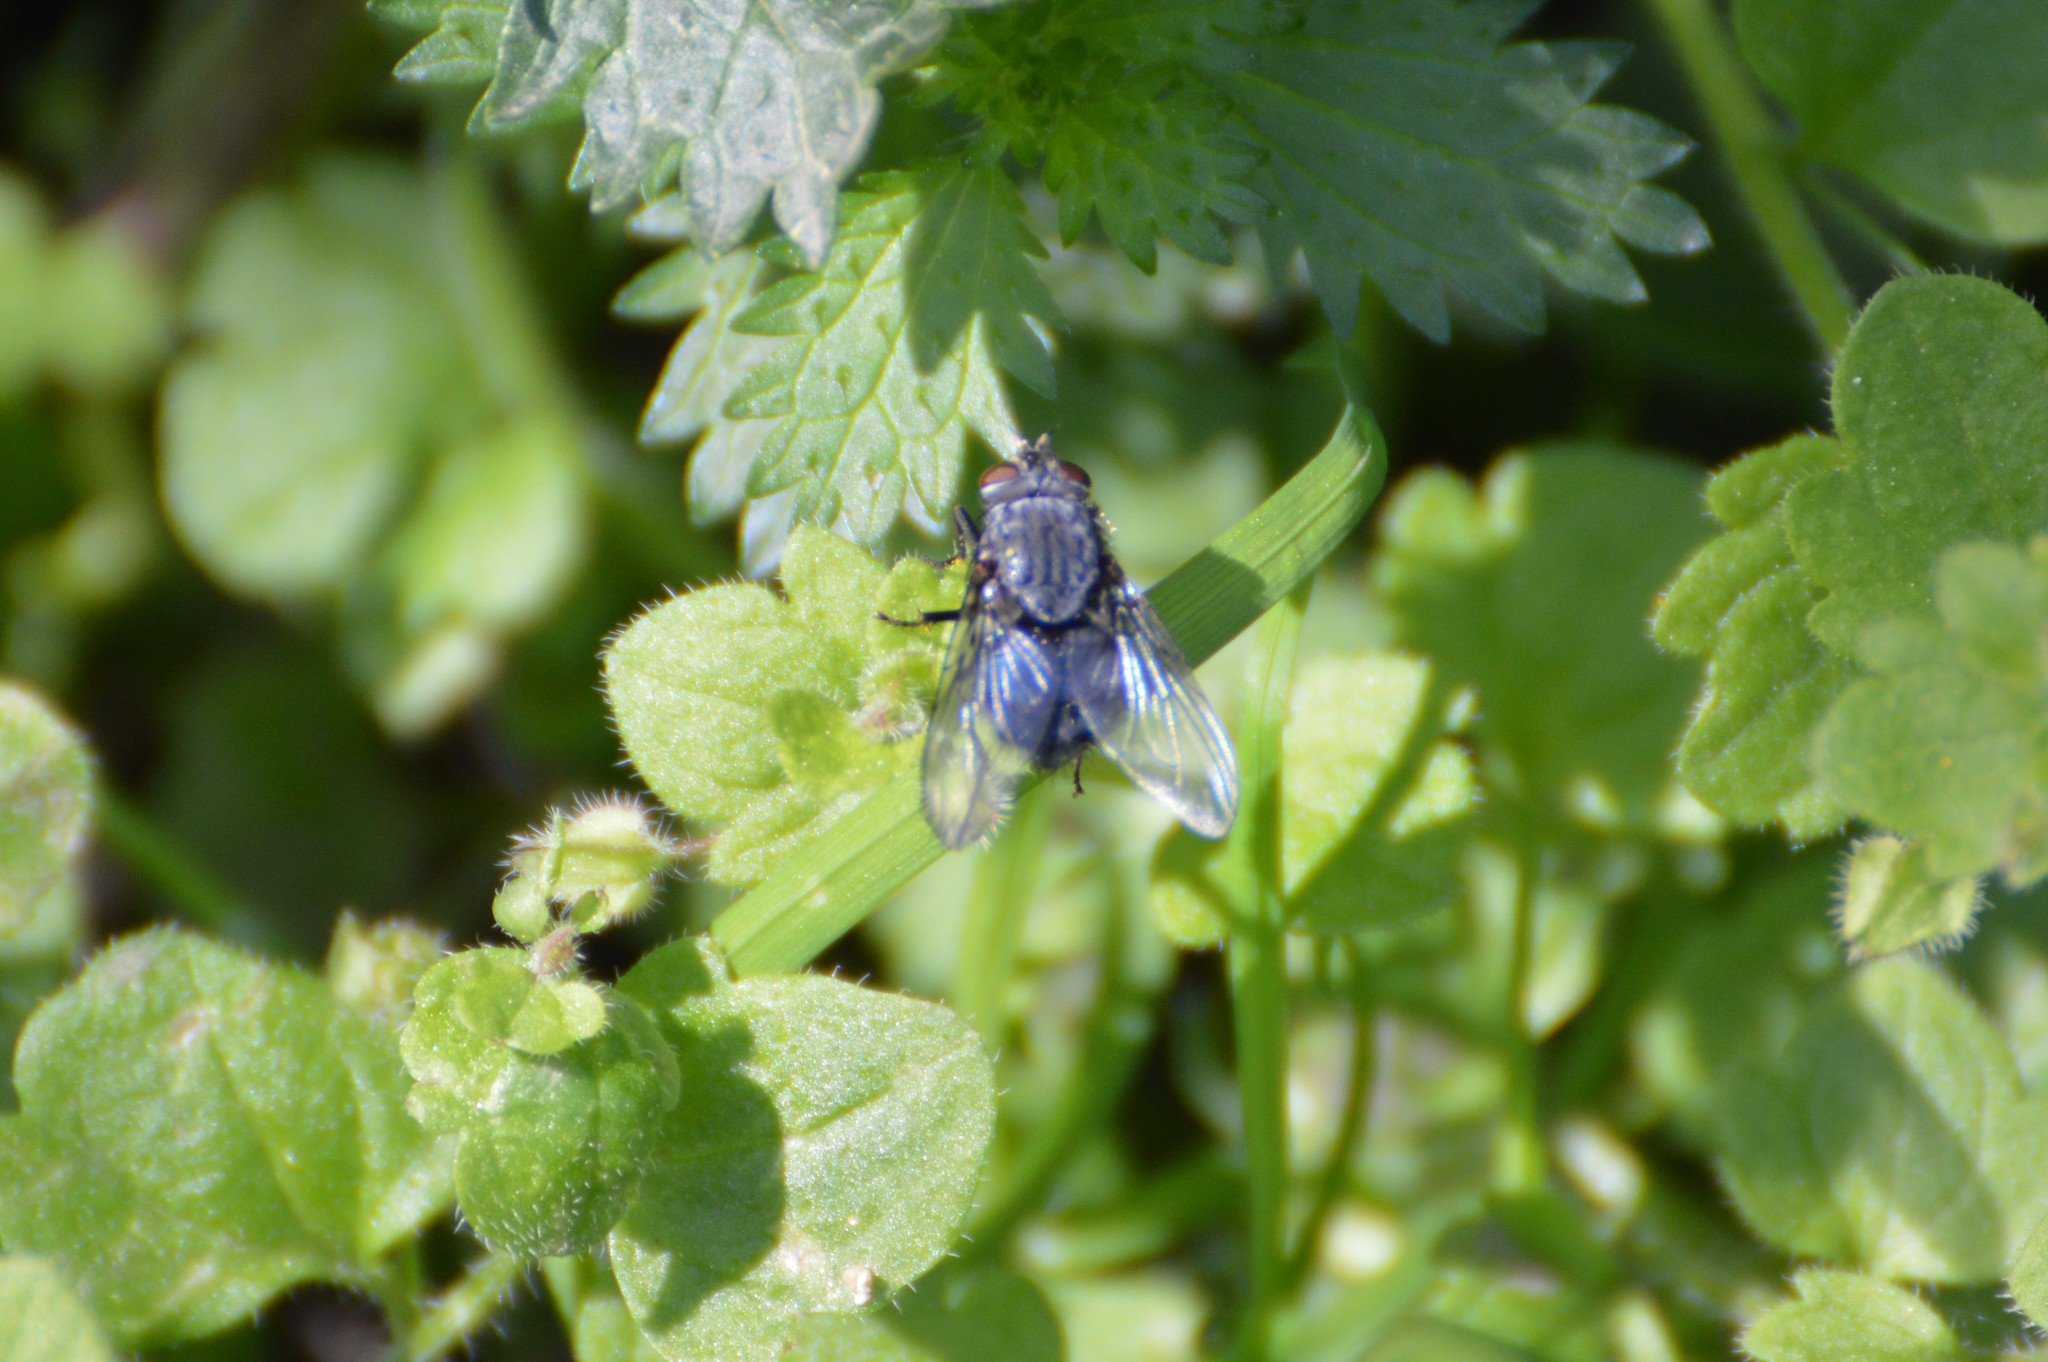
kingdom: Animalia
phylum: Arthropoda
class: Insecta
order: Diptera
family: Calliphoridae
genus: Calliphora
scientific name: Calliphora
